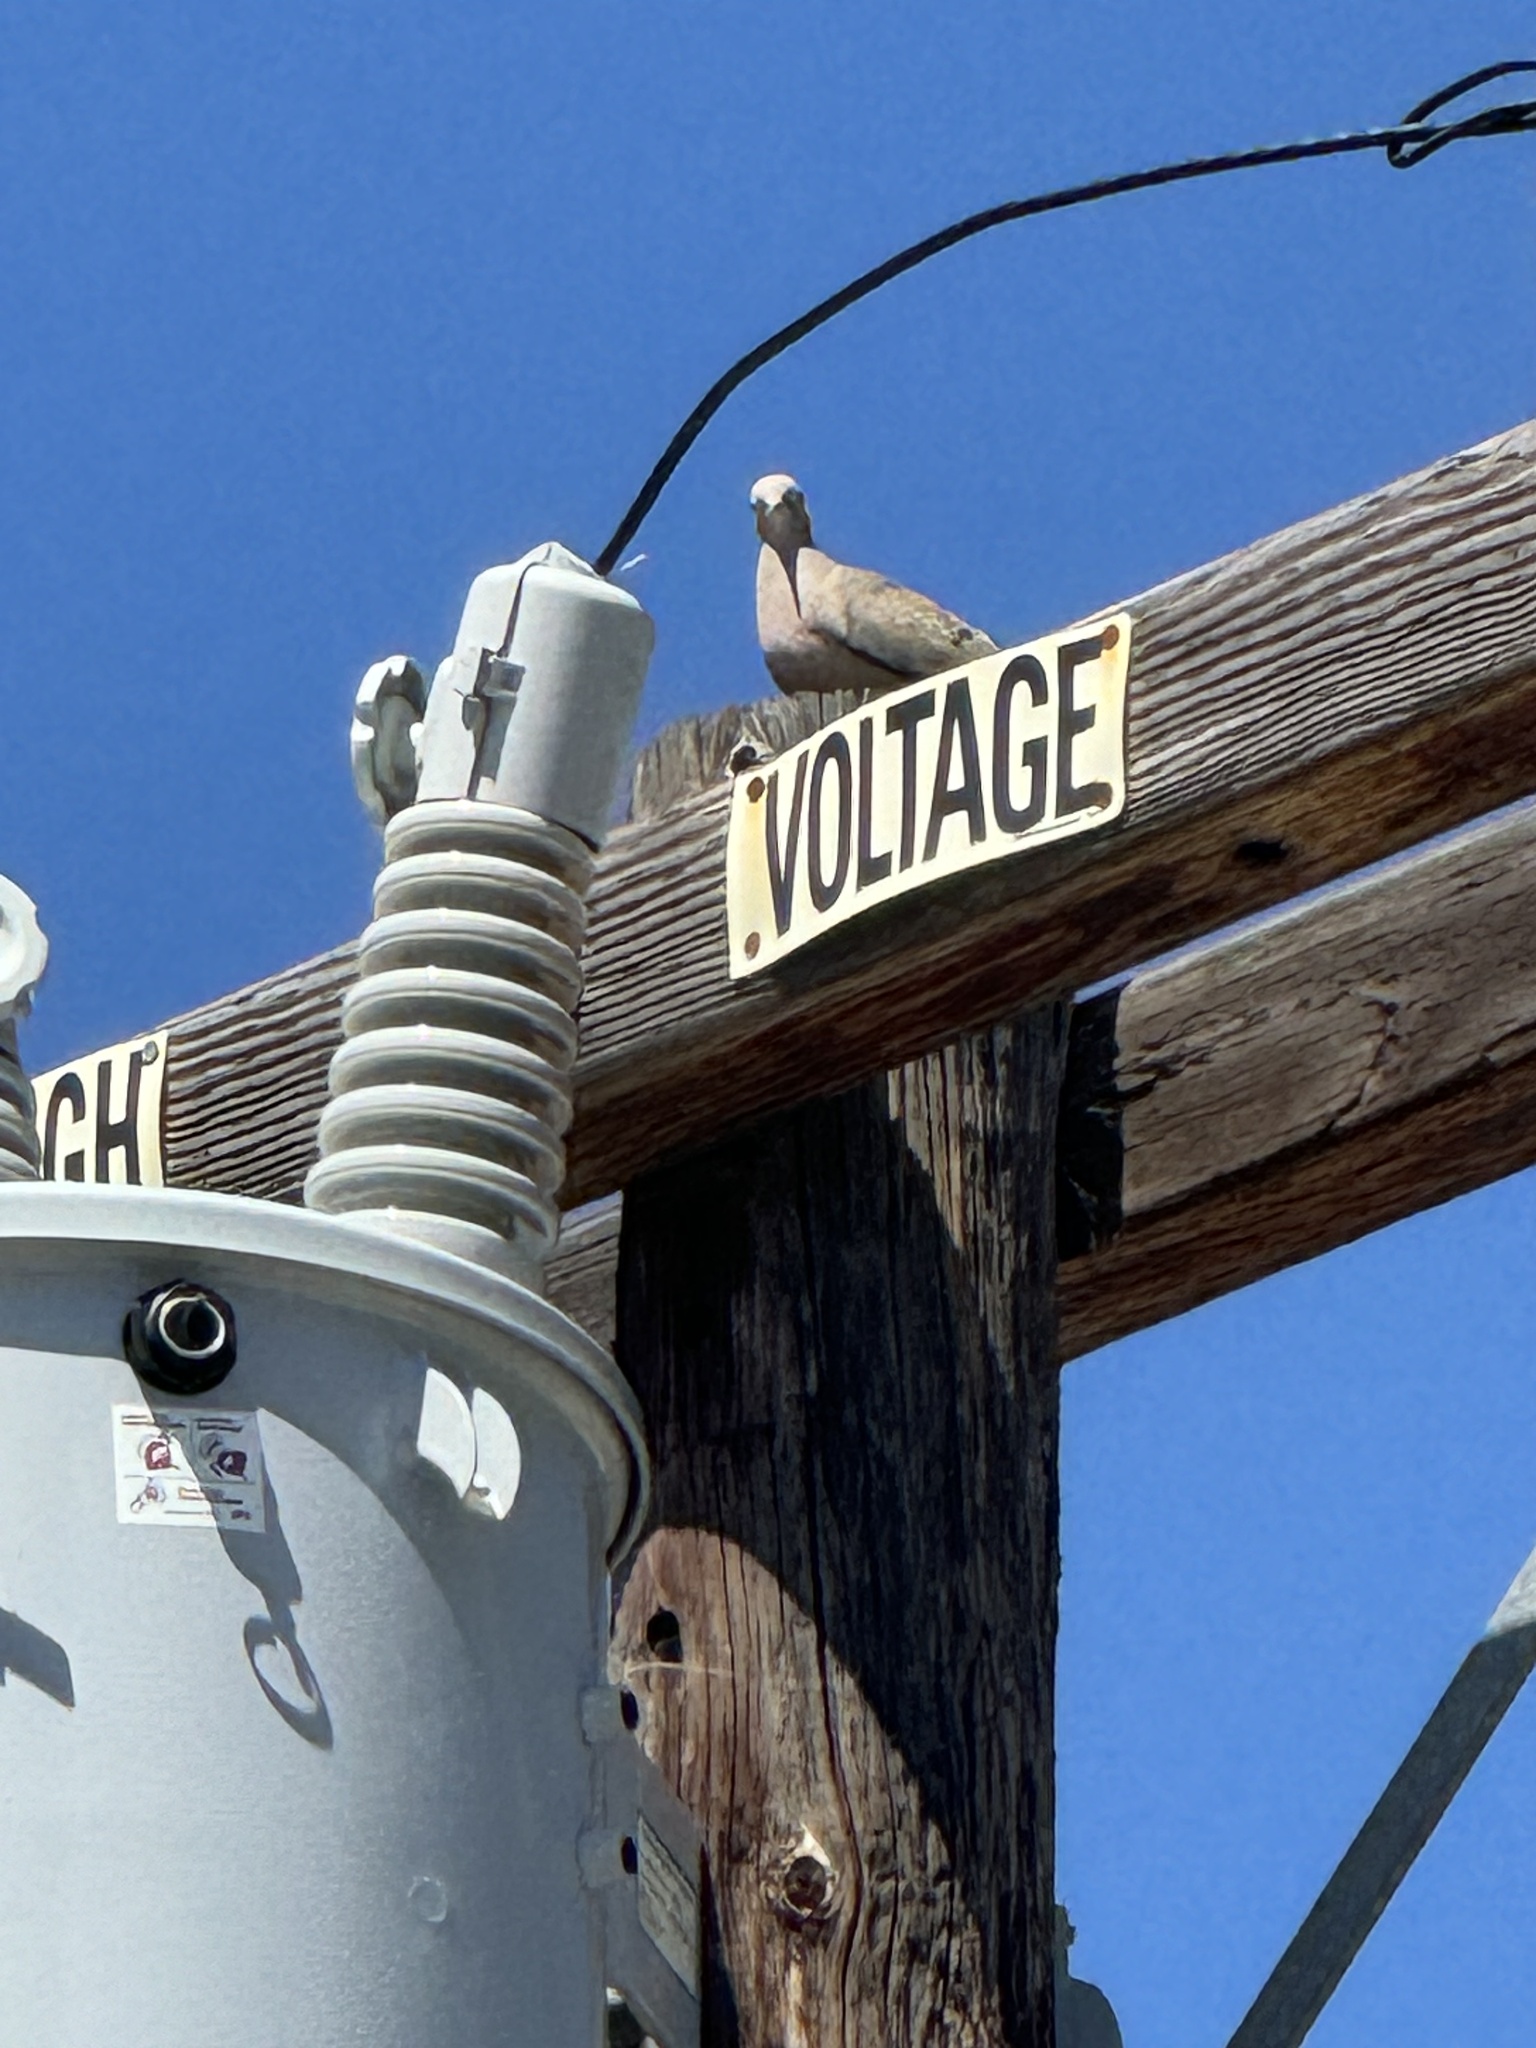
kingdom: Animalia
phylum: Chordata
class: Aves
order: Columbiformes
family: Columbidae
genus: Zenaida
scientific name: Zenaida macroura
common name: Mourning dove
